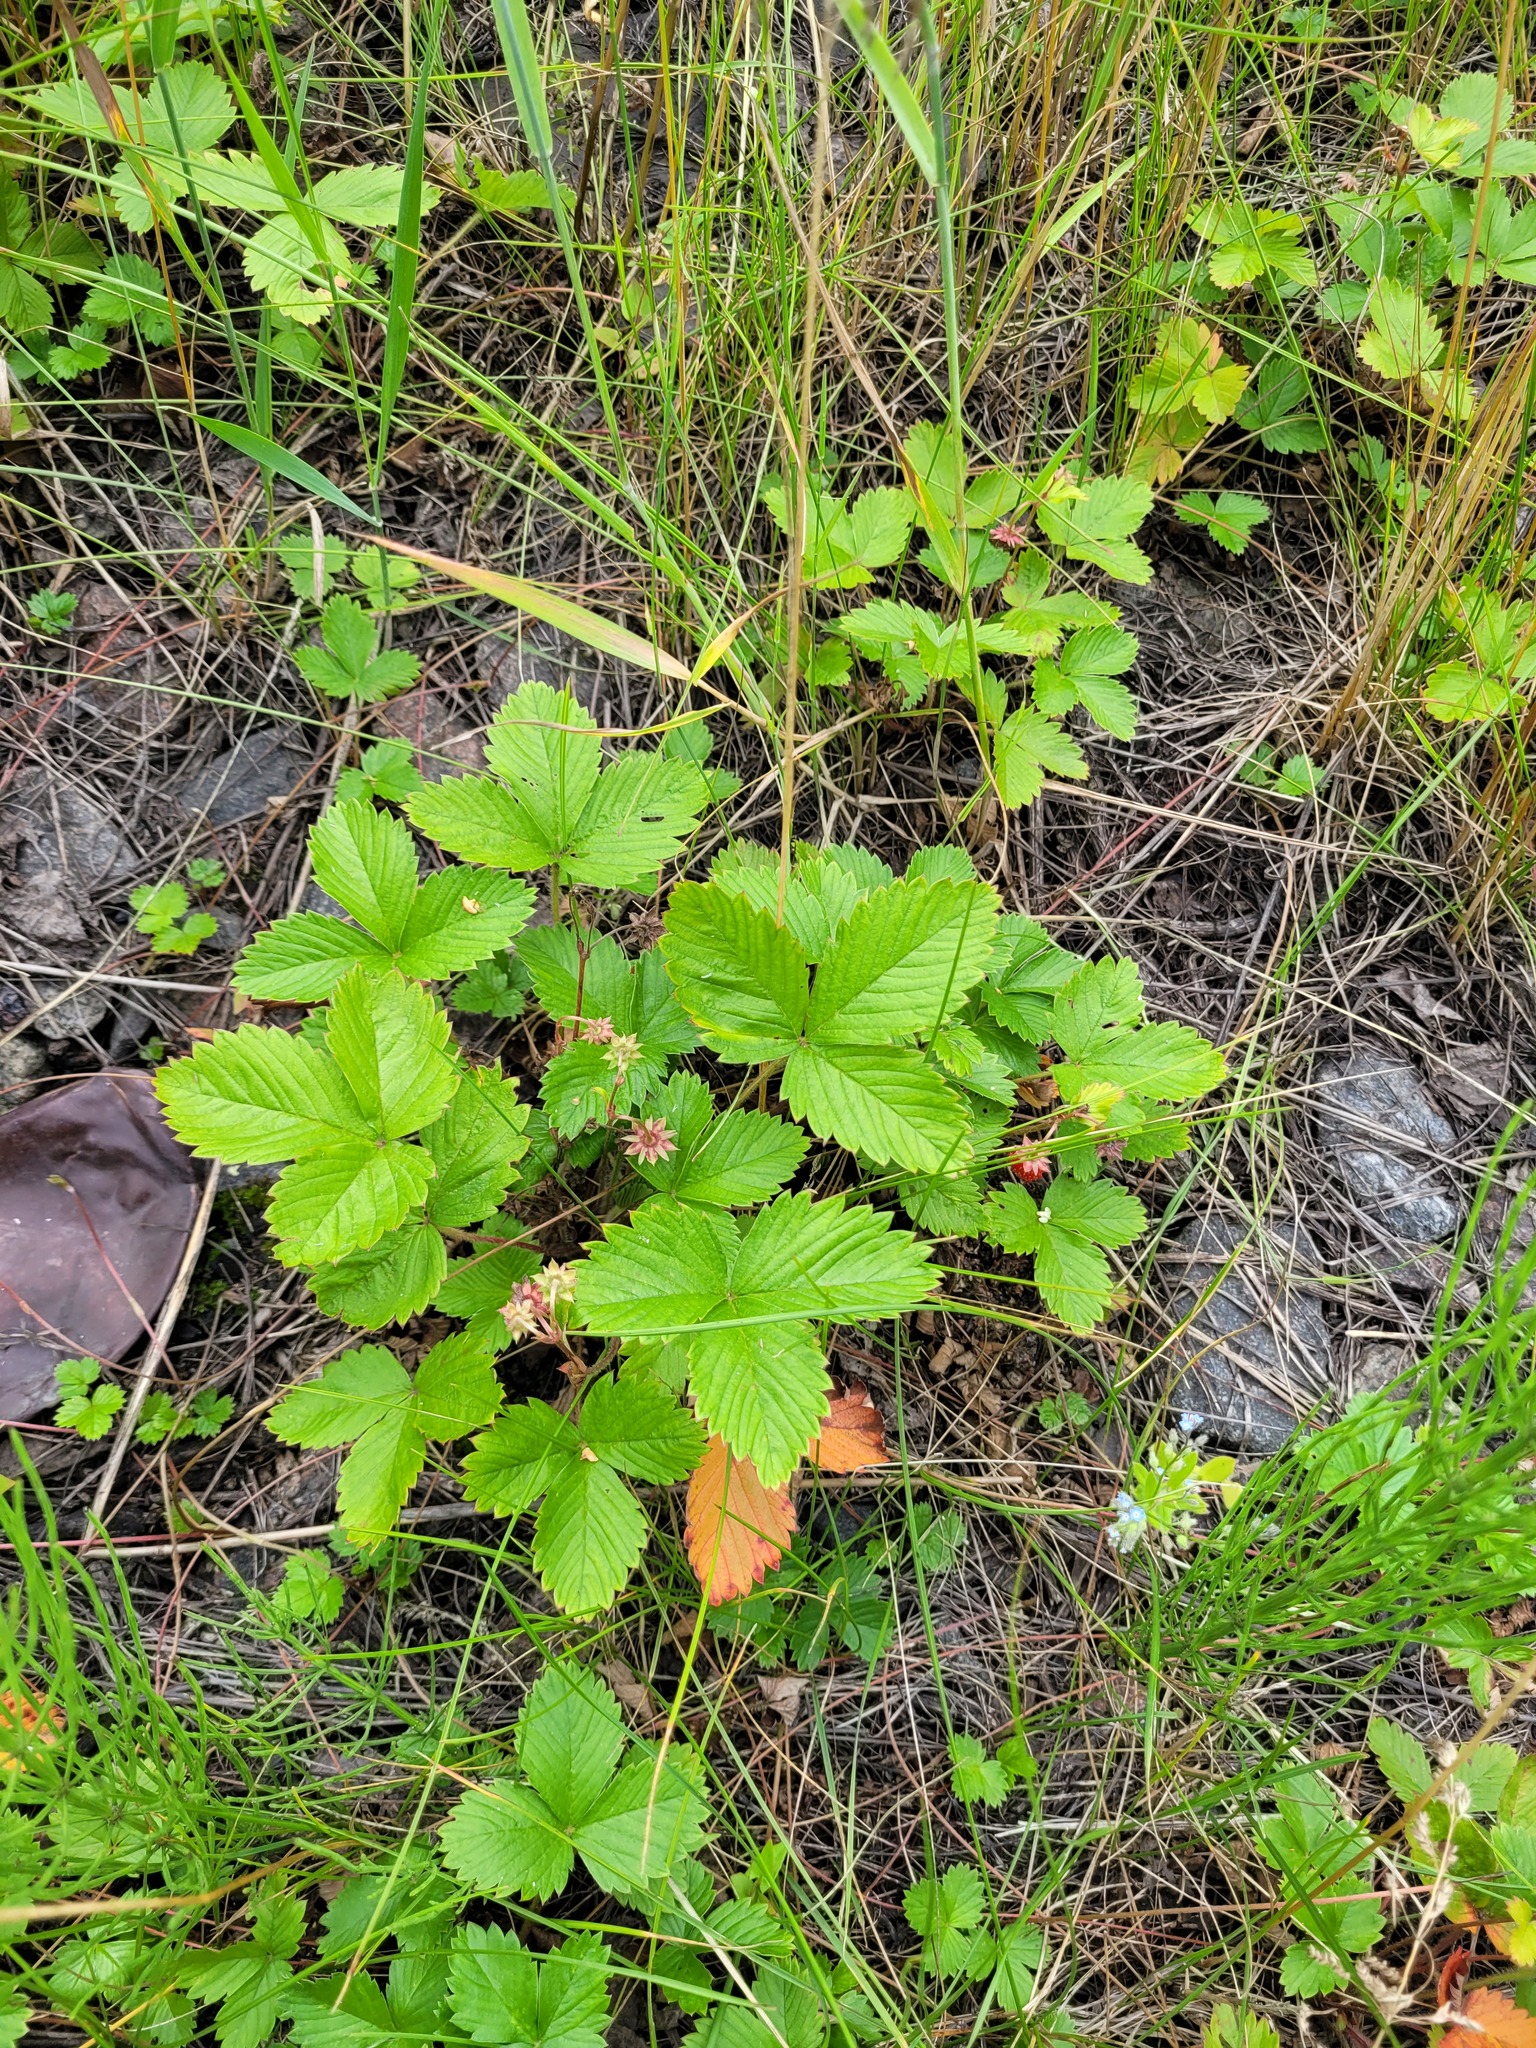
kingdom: Plantae
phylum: Tracheophyta
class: Magnoliopsida
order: Rosales
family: Rosaceae
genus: Fragaria
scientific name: Fragaria vesca
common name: Wild strawberry
